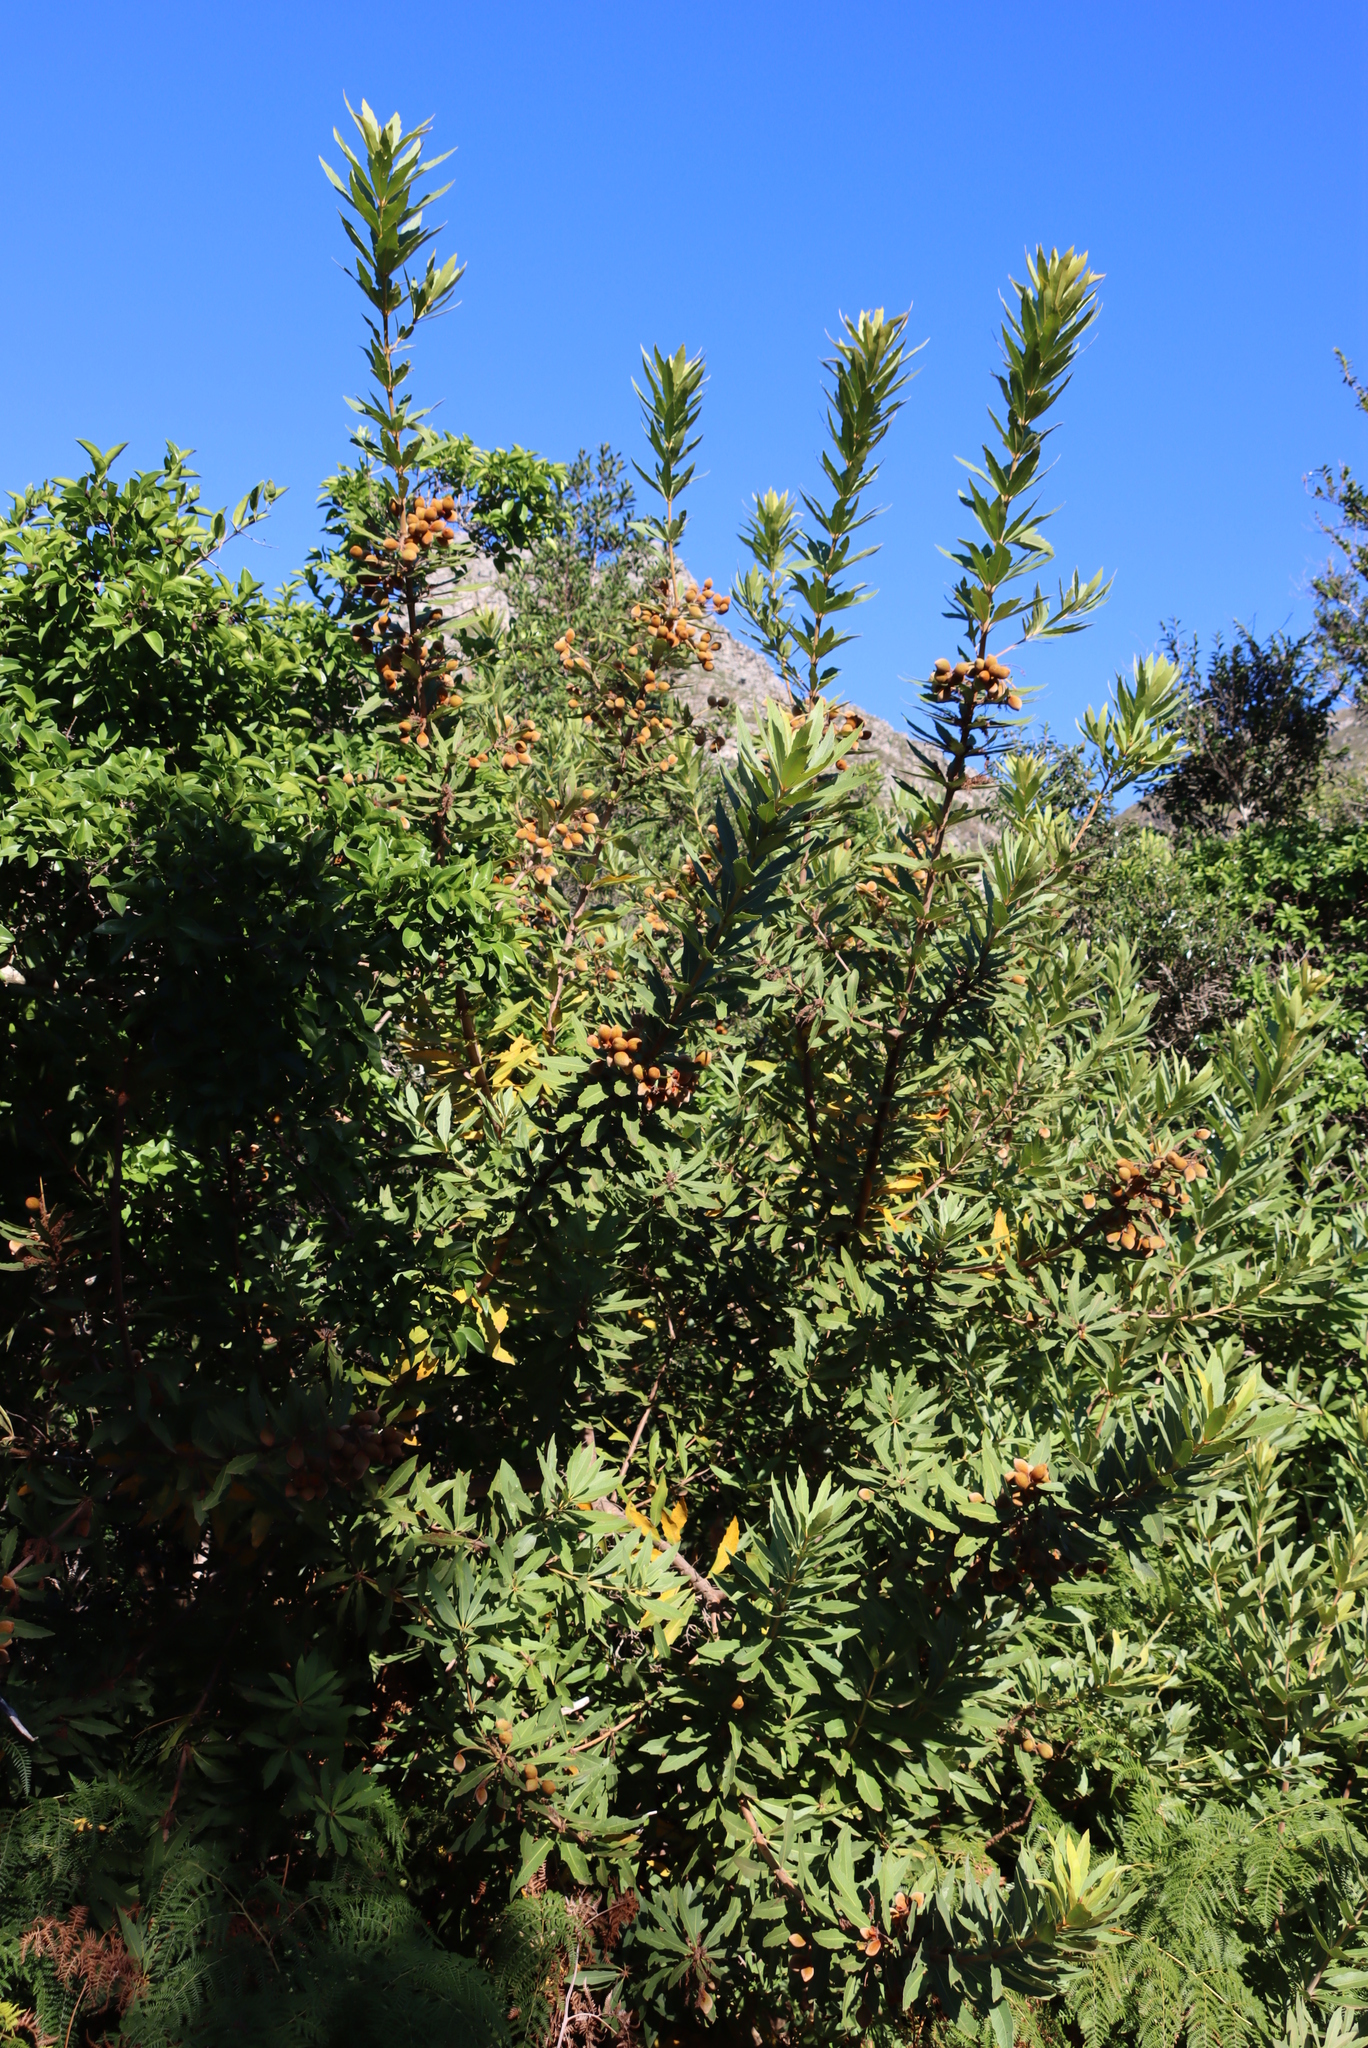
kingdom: Plantae
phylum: Tracheophyta
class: Magnoliopsida
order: Proteales
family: Proteaceae
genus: Brabejum
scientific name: Brabejum stellatifolium
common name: Wild almond
